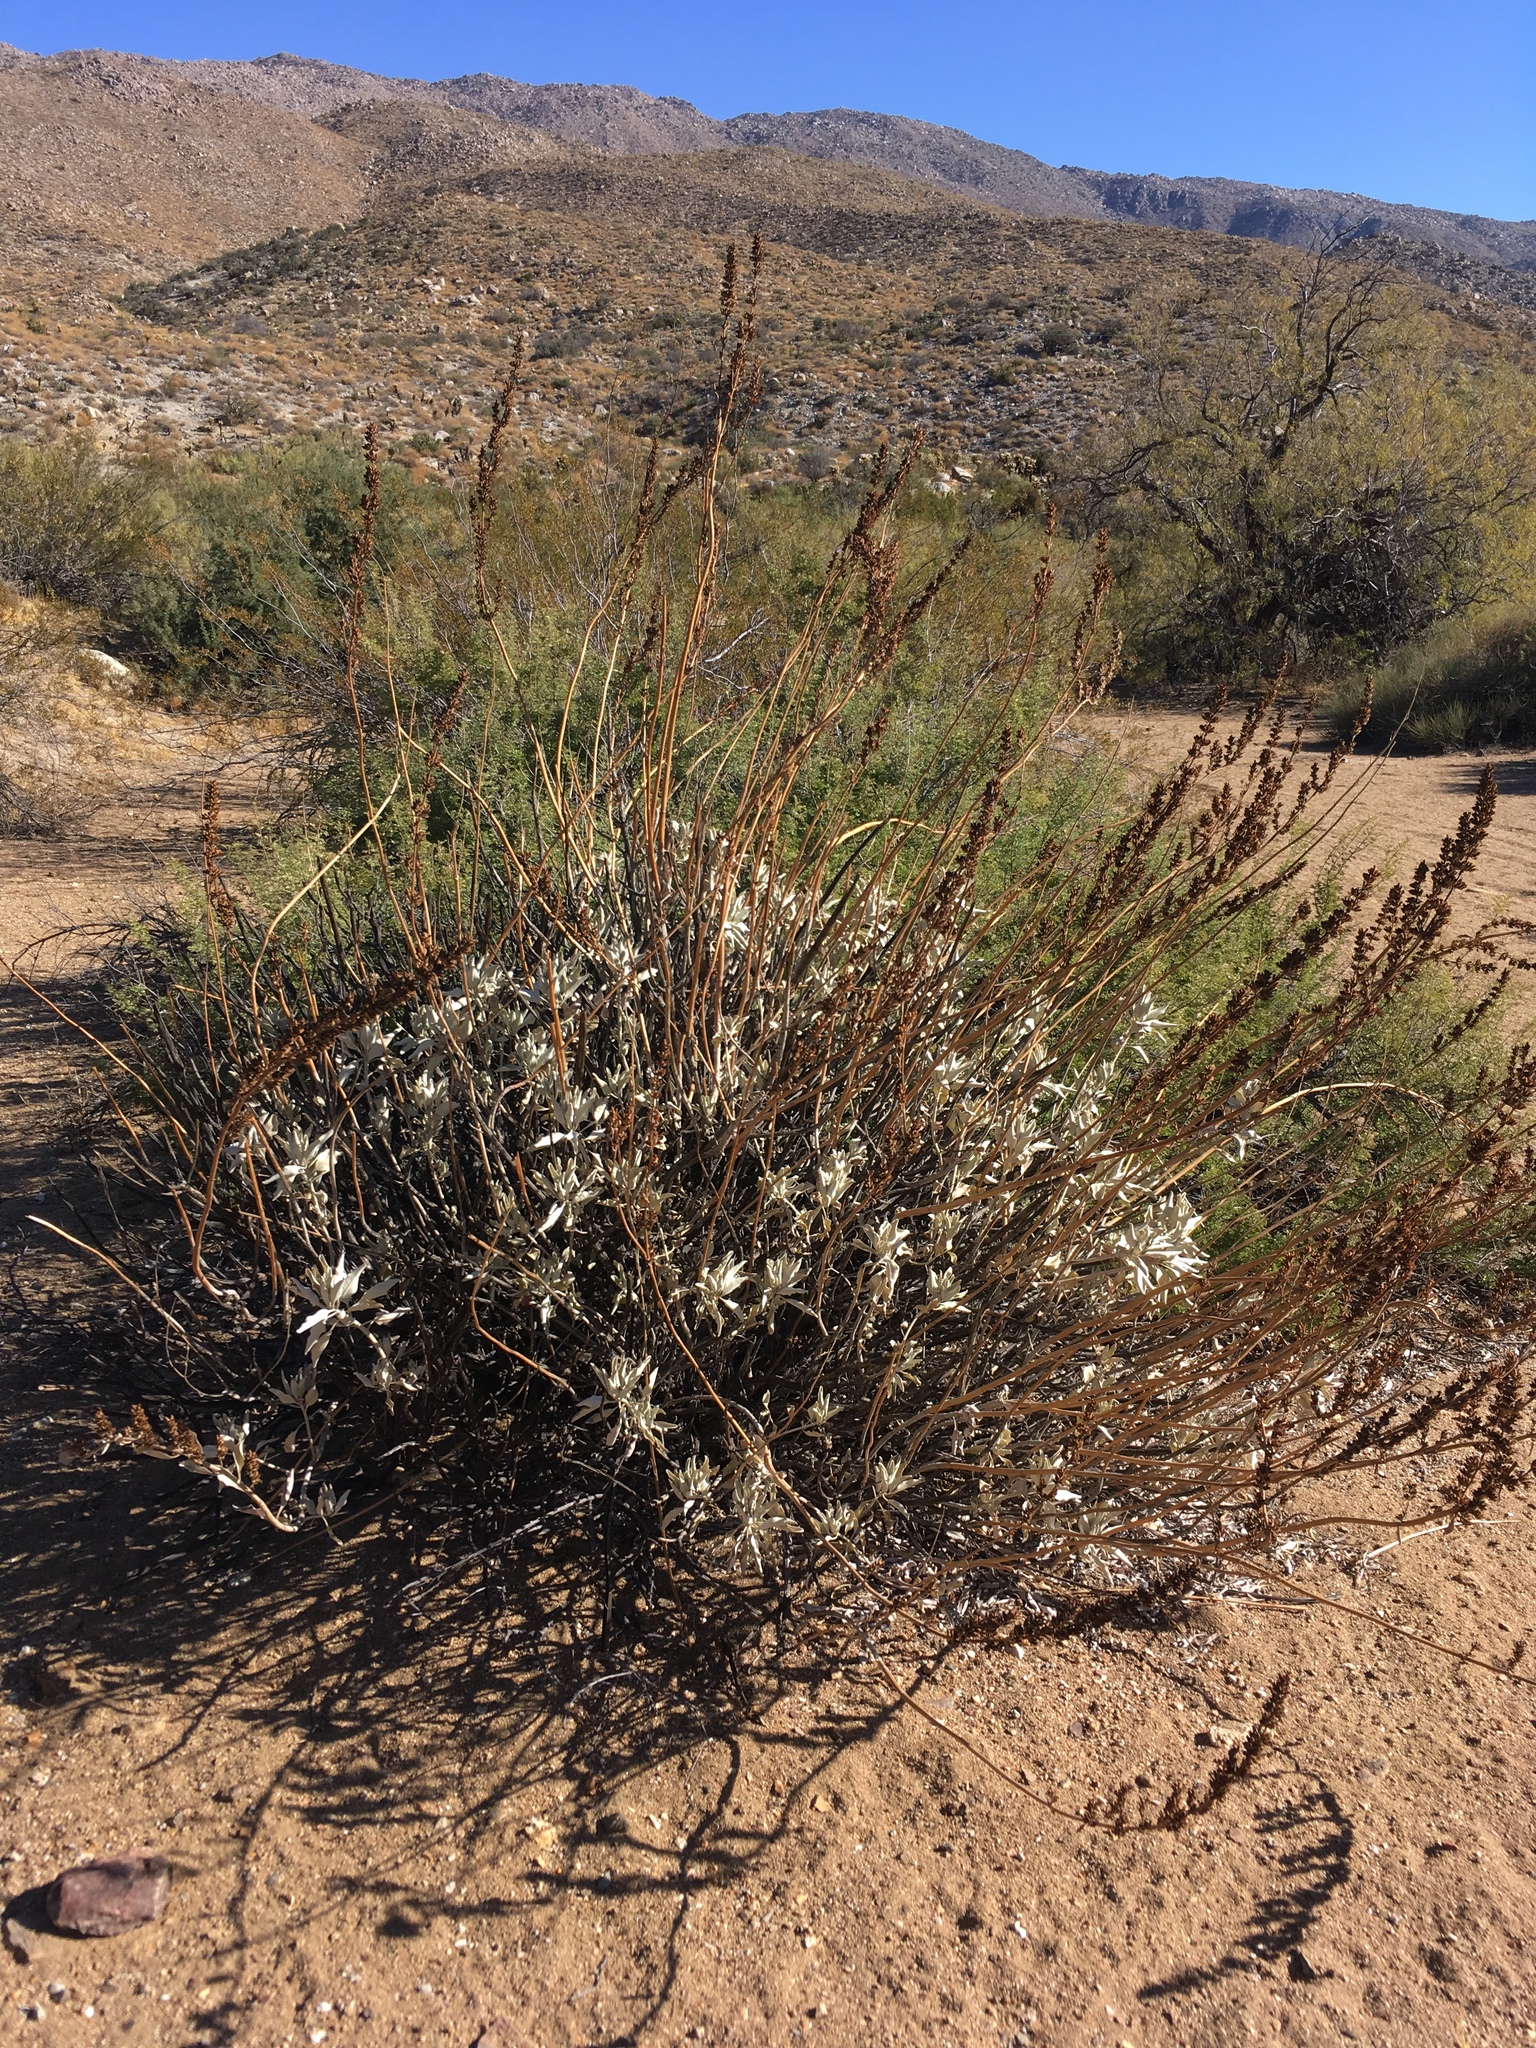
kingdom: Plantae
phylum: Tracheophyta
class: Magnoliopsida
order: Lamiales
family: Lamiaceae
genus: Salvia
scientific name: Salvia apiana
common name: White sage
